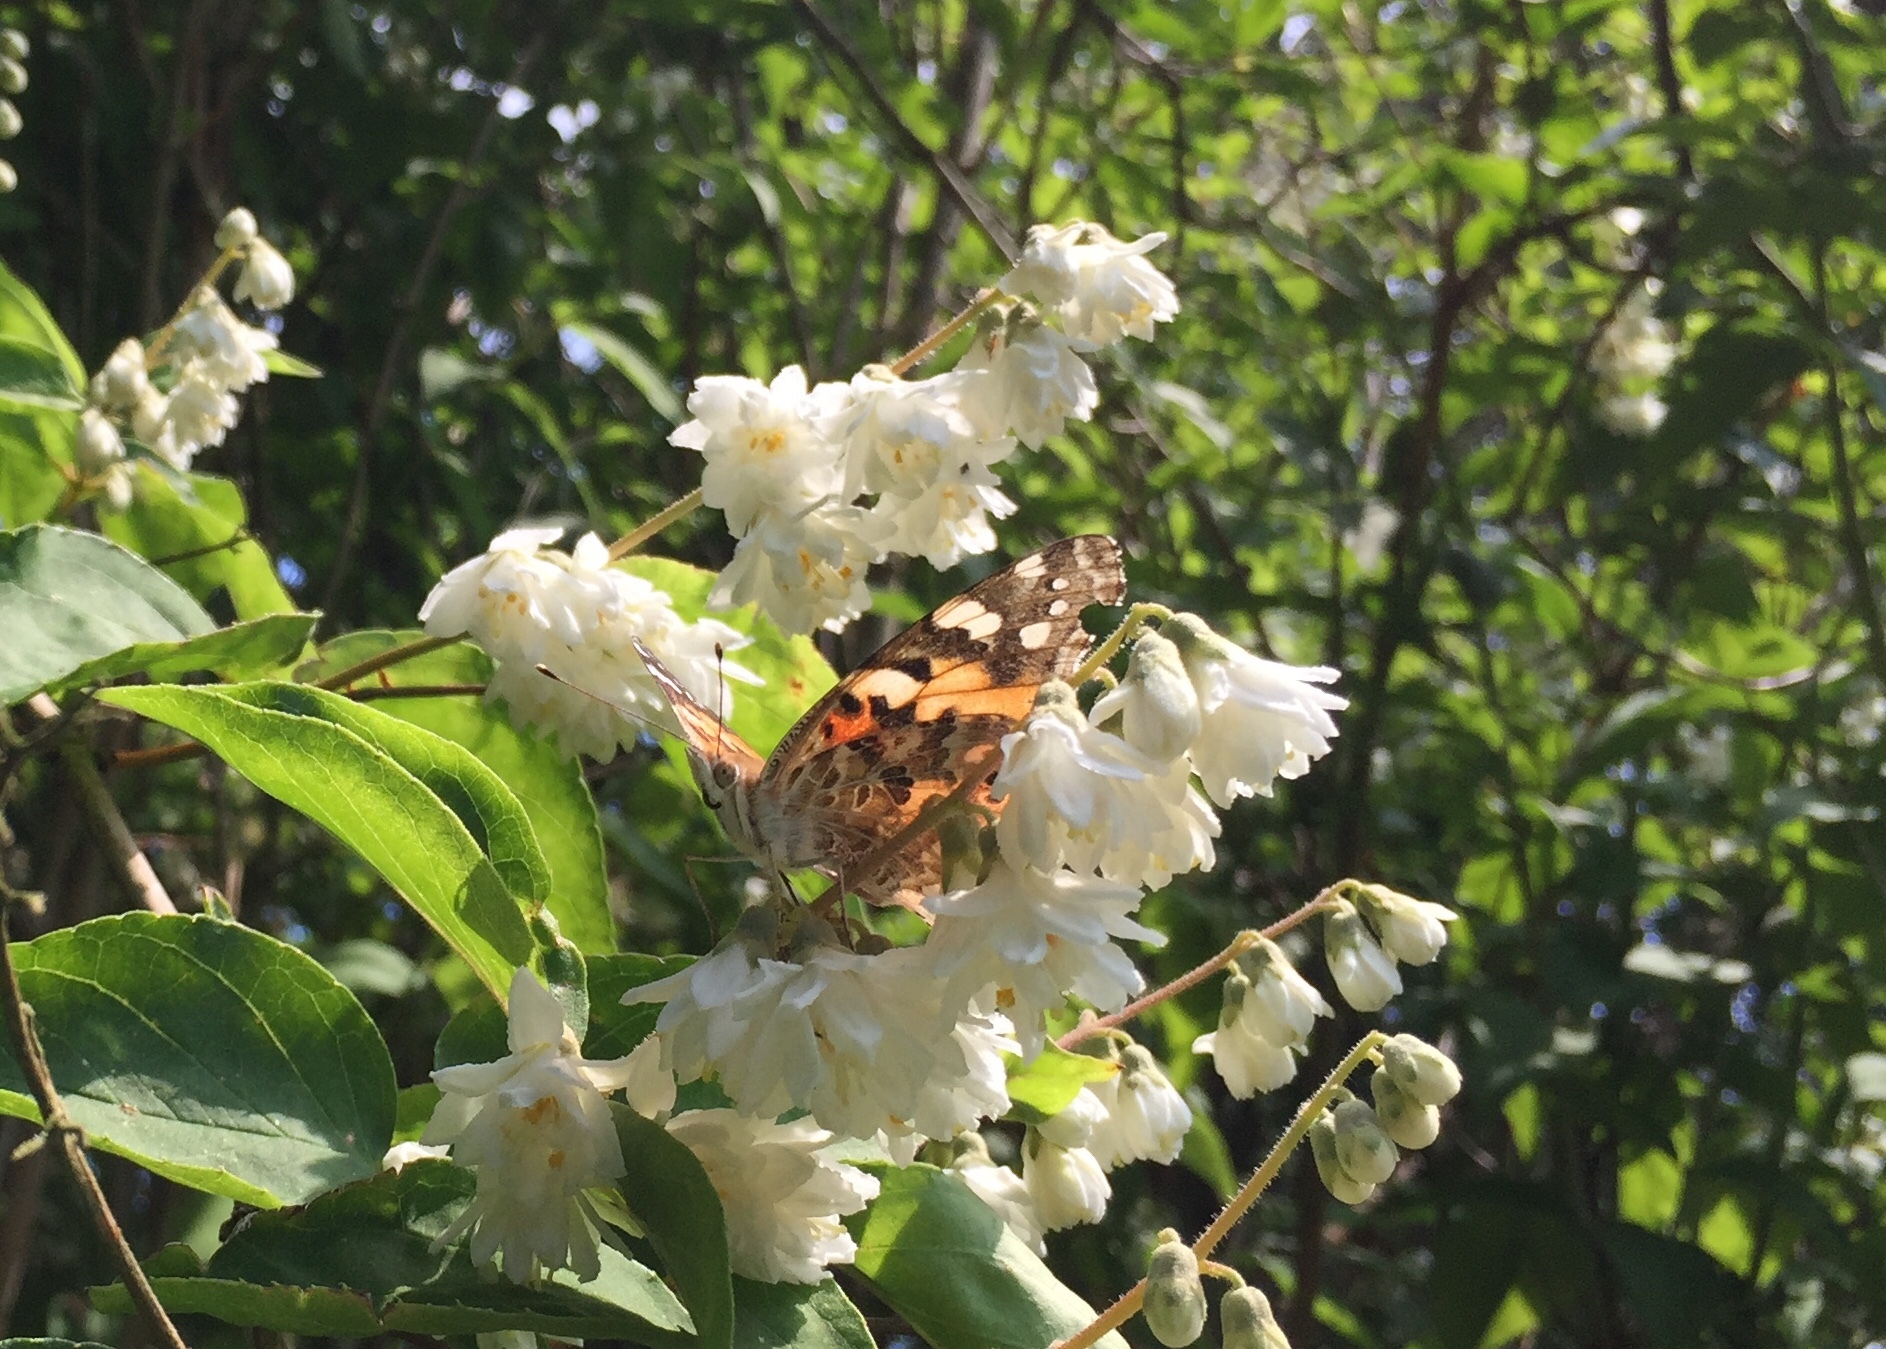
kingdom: Animalia
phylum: Arthropoda
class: Insecta
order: Lepidoptera
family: Nymphalidae
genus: Vanessa
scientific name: Vanessa cardui
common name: Painted lady
